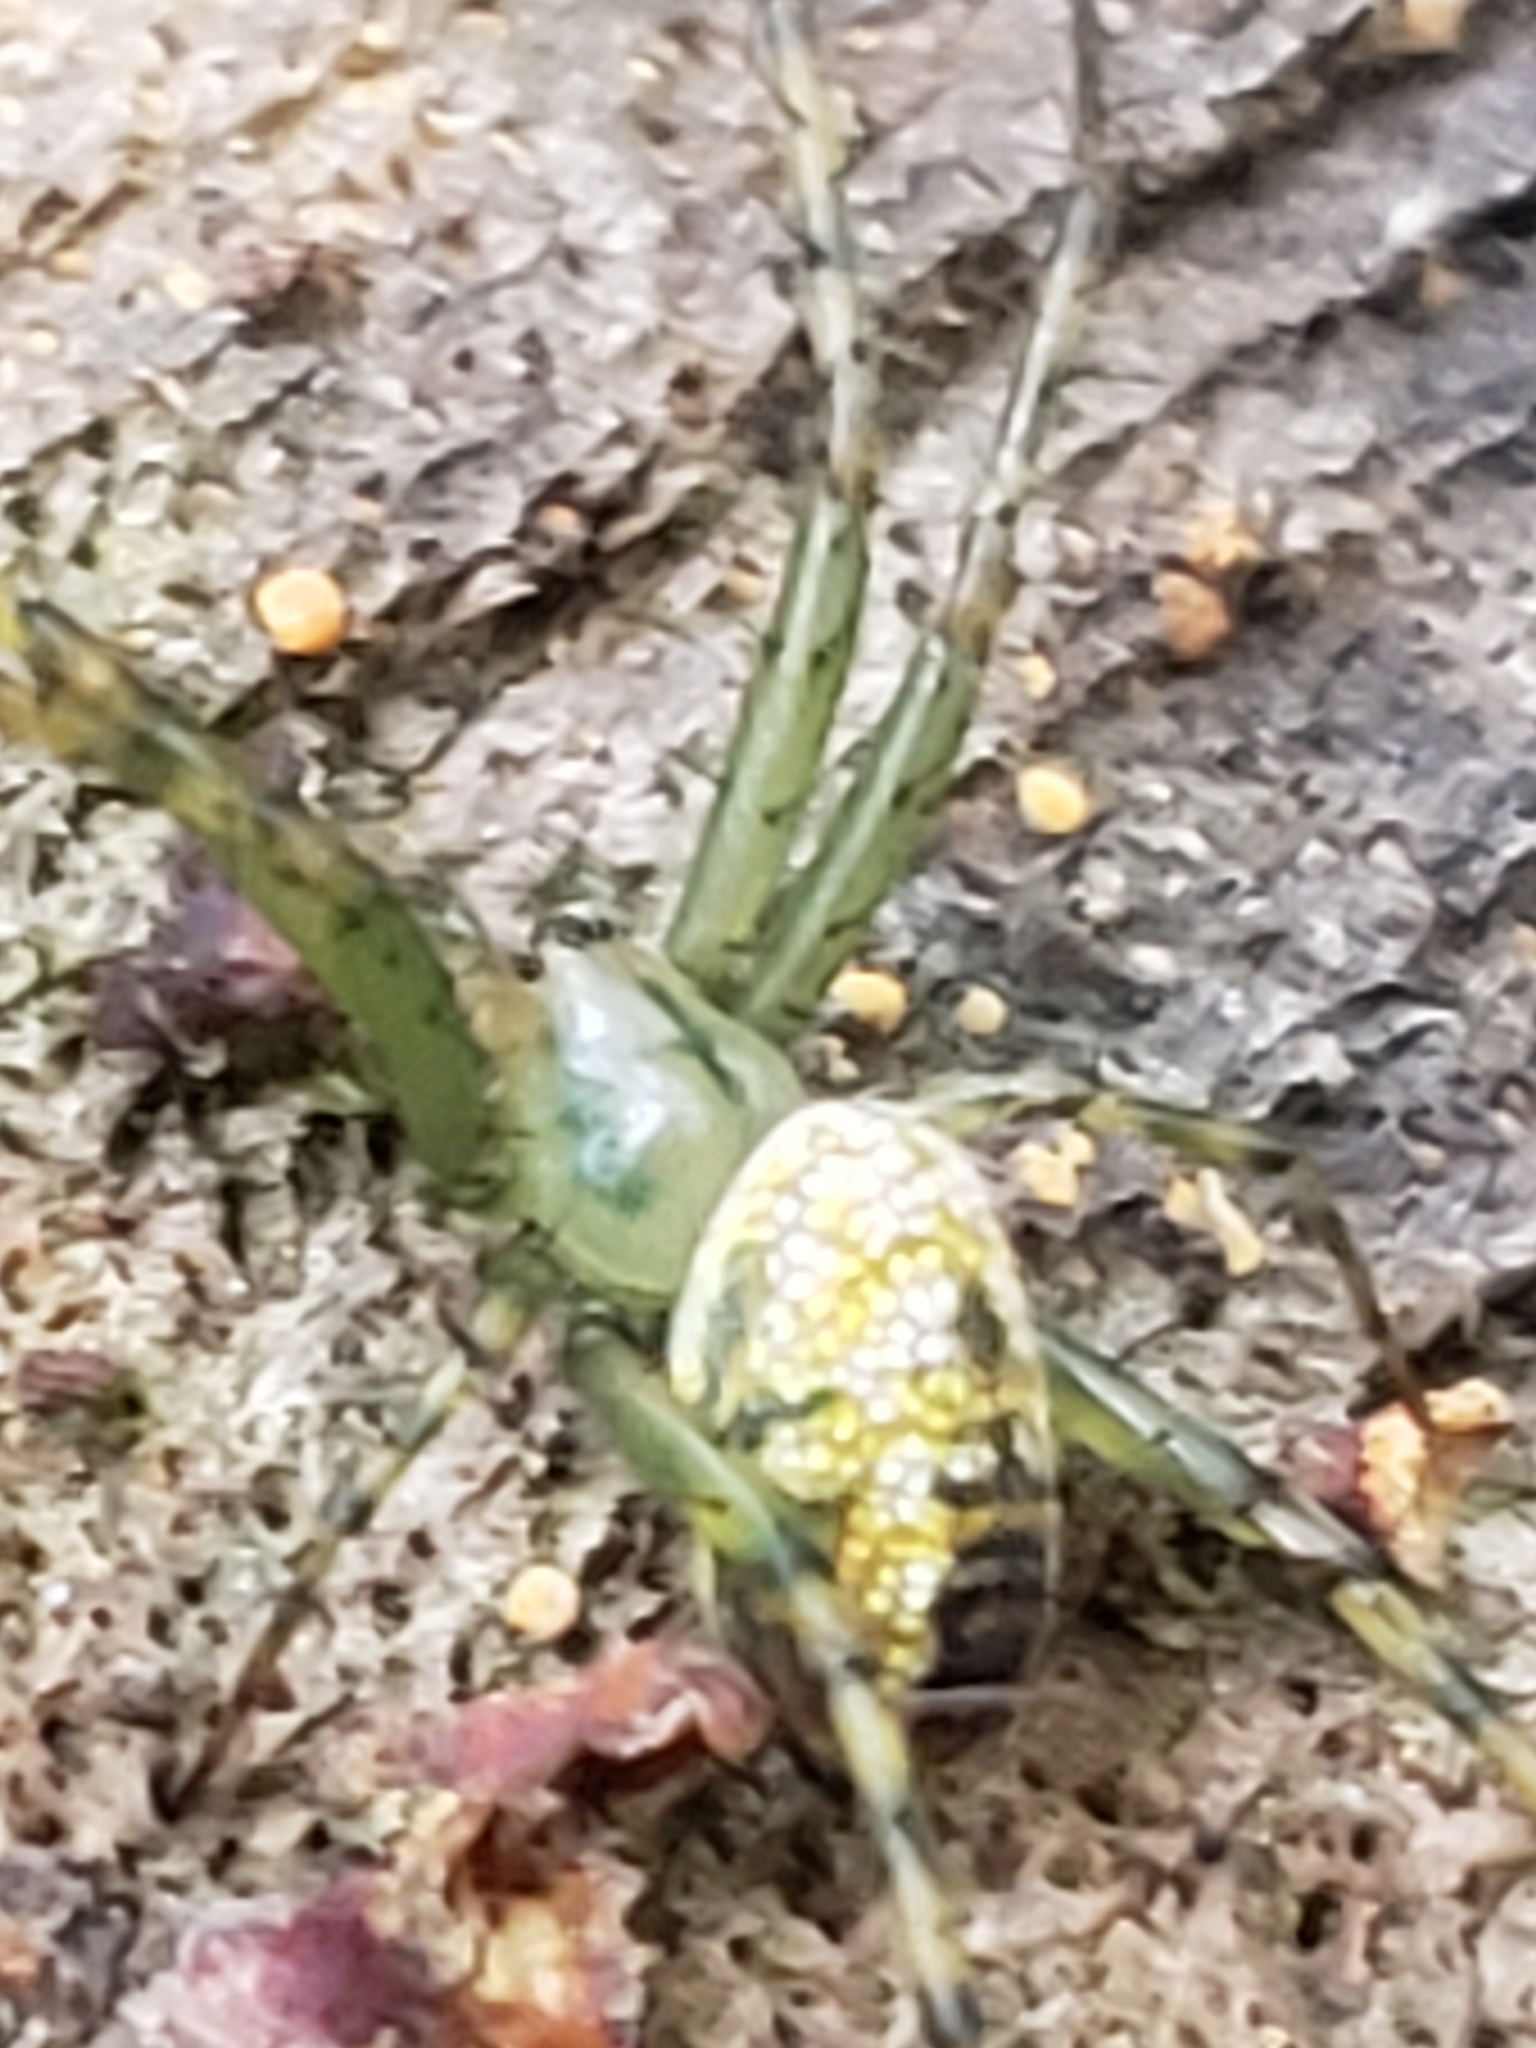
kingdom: Animalia
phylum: Arthropoda
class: Arachnida
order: Araneae
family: Araneidae
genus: Mangora
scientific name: Mangora spiculata
